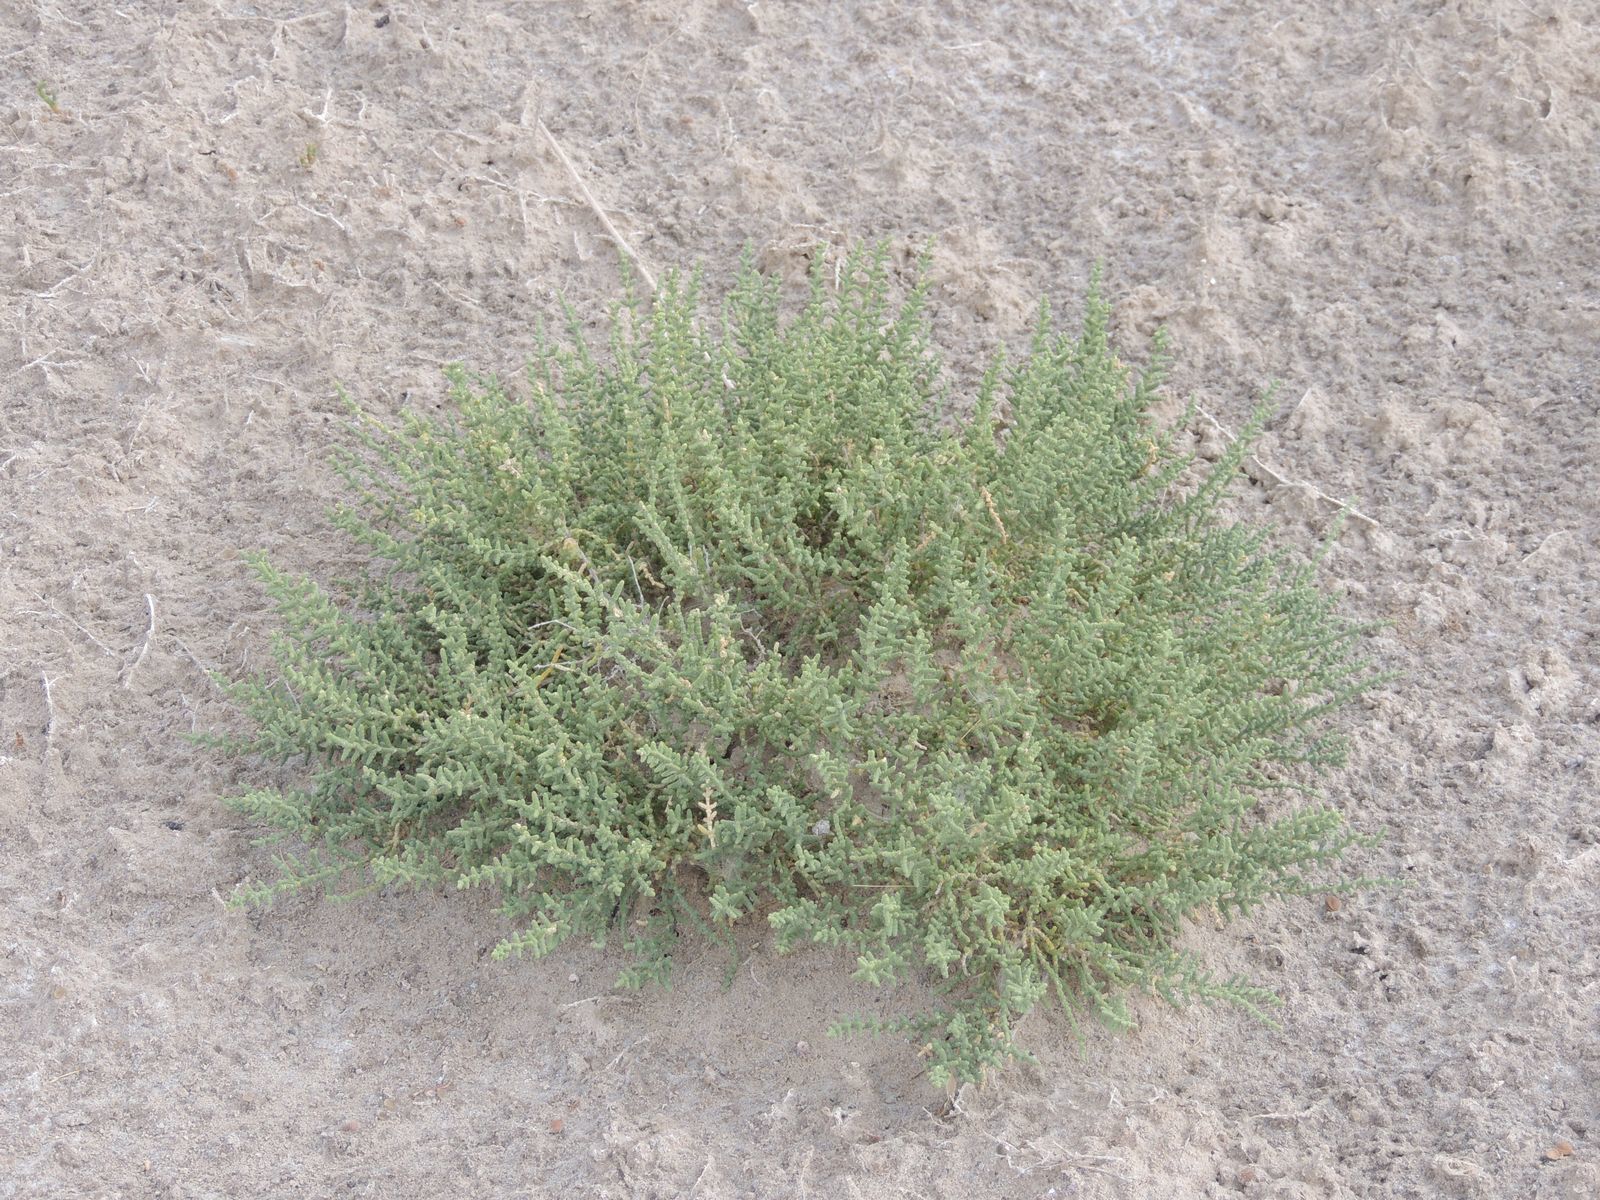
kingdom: Plantae
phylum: Tracheophyta
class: Magnoliopsida
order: Caryophyllales
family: Amaranthaceae
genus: Halocnemum
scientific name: Halocnemum strobilaceum
